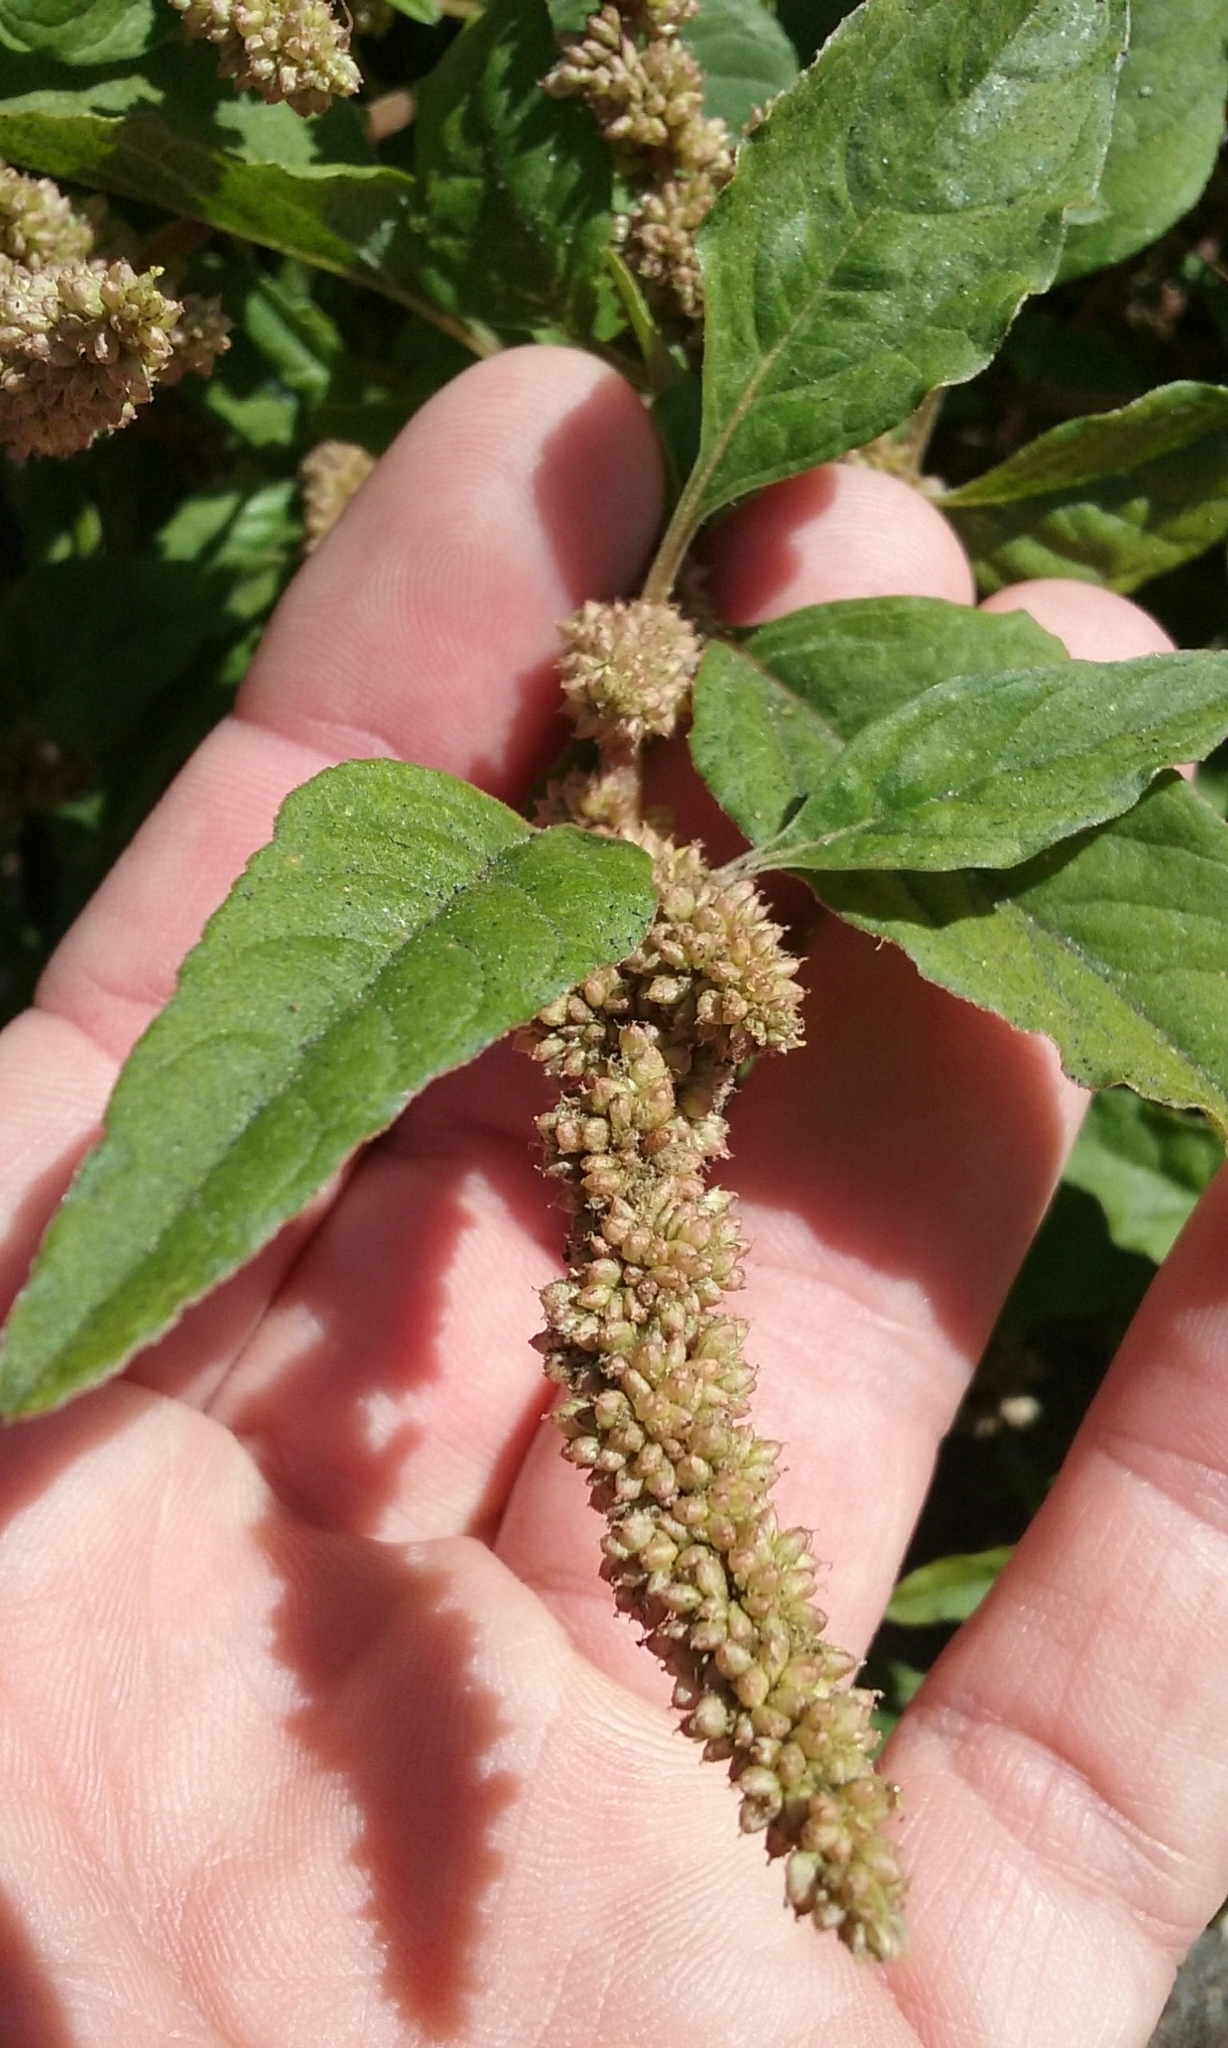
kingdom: Plantae
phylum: Tracheophyta
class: Magnoliopsida
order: Caryophyllales
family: Amaranthaceae
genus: Amaranthus
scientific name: Amaranthus deflexus
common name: Perennial pigweed
